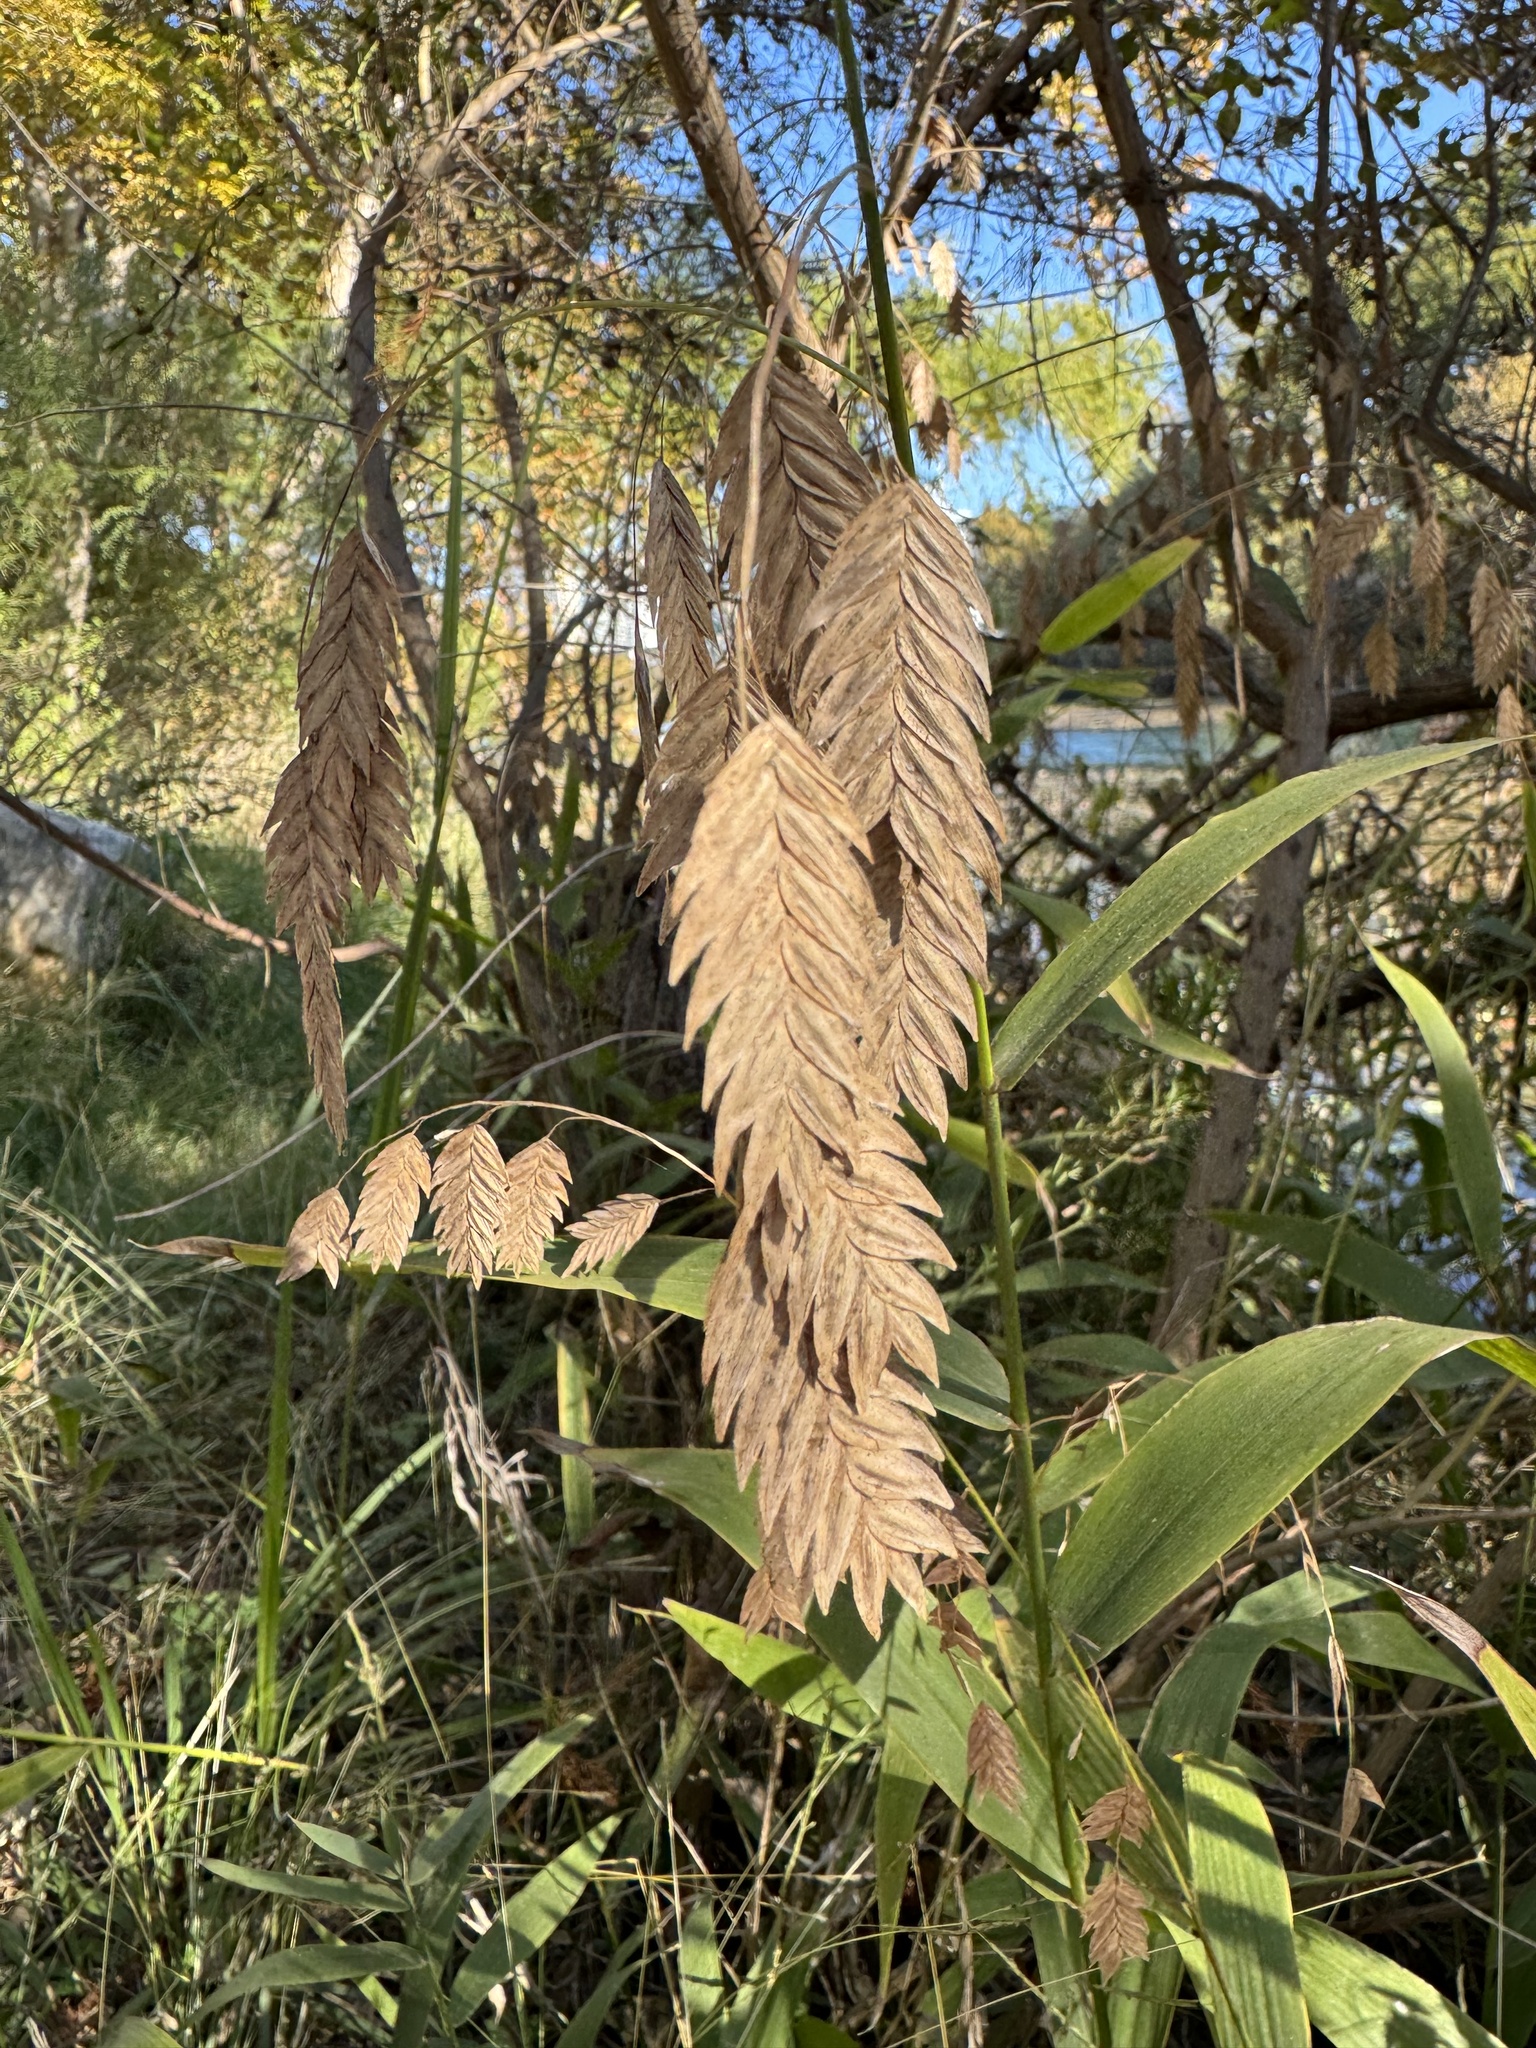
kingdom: Plantae
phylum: Tracheophyta
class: Liliopsida
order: Poales
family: Poaceae
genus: Chasmanthium
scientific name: Chasmanthium latifolium
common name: Broad-leaved chasmanthium
